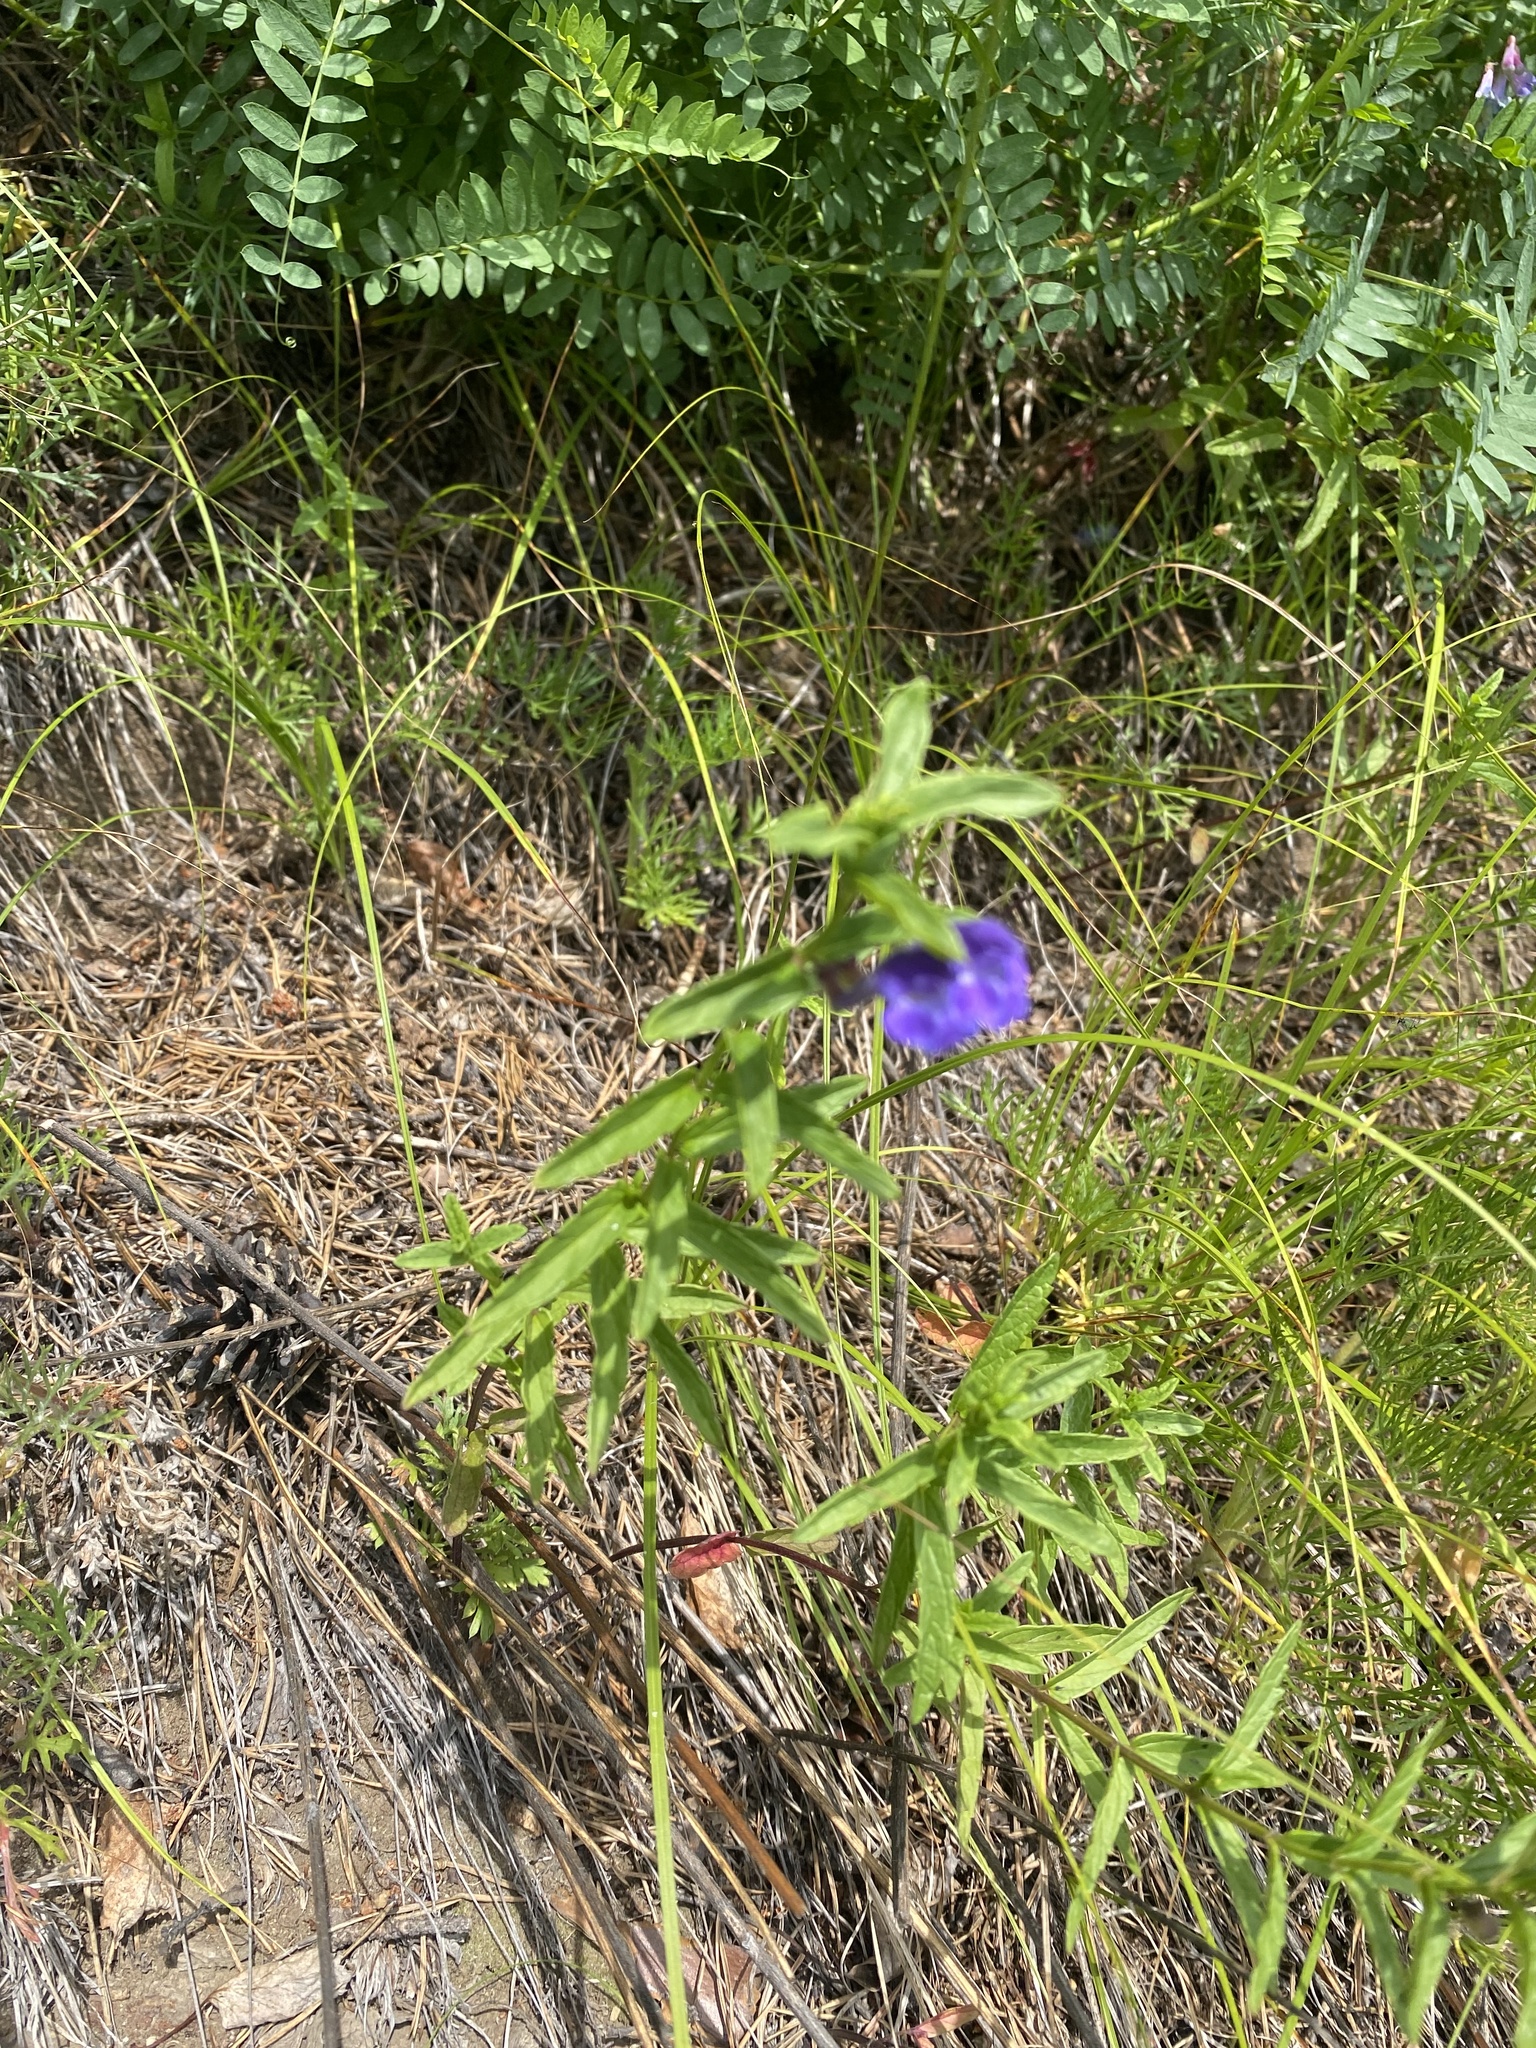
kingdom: Plantae
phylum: Tracheophyta
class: Magnoliopsida
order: Lamiales
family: Lamiaceae
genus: Scutellaria
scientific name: Scutellaria scordiifolia
